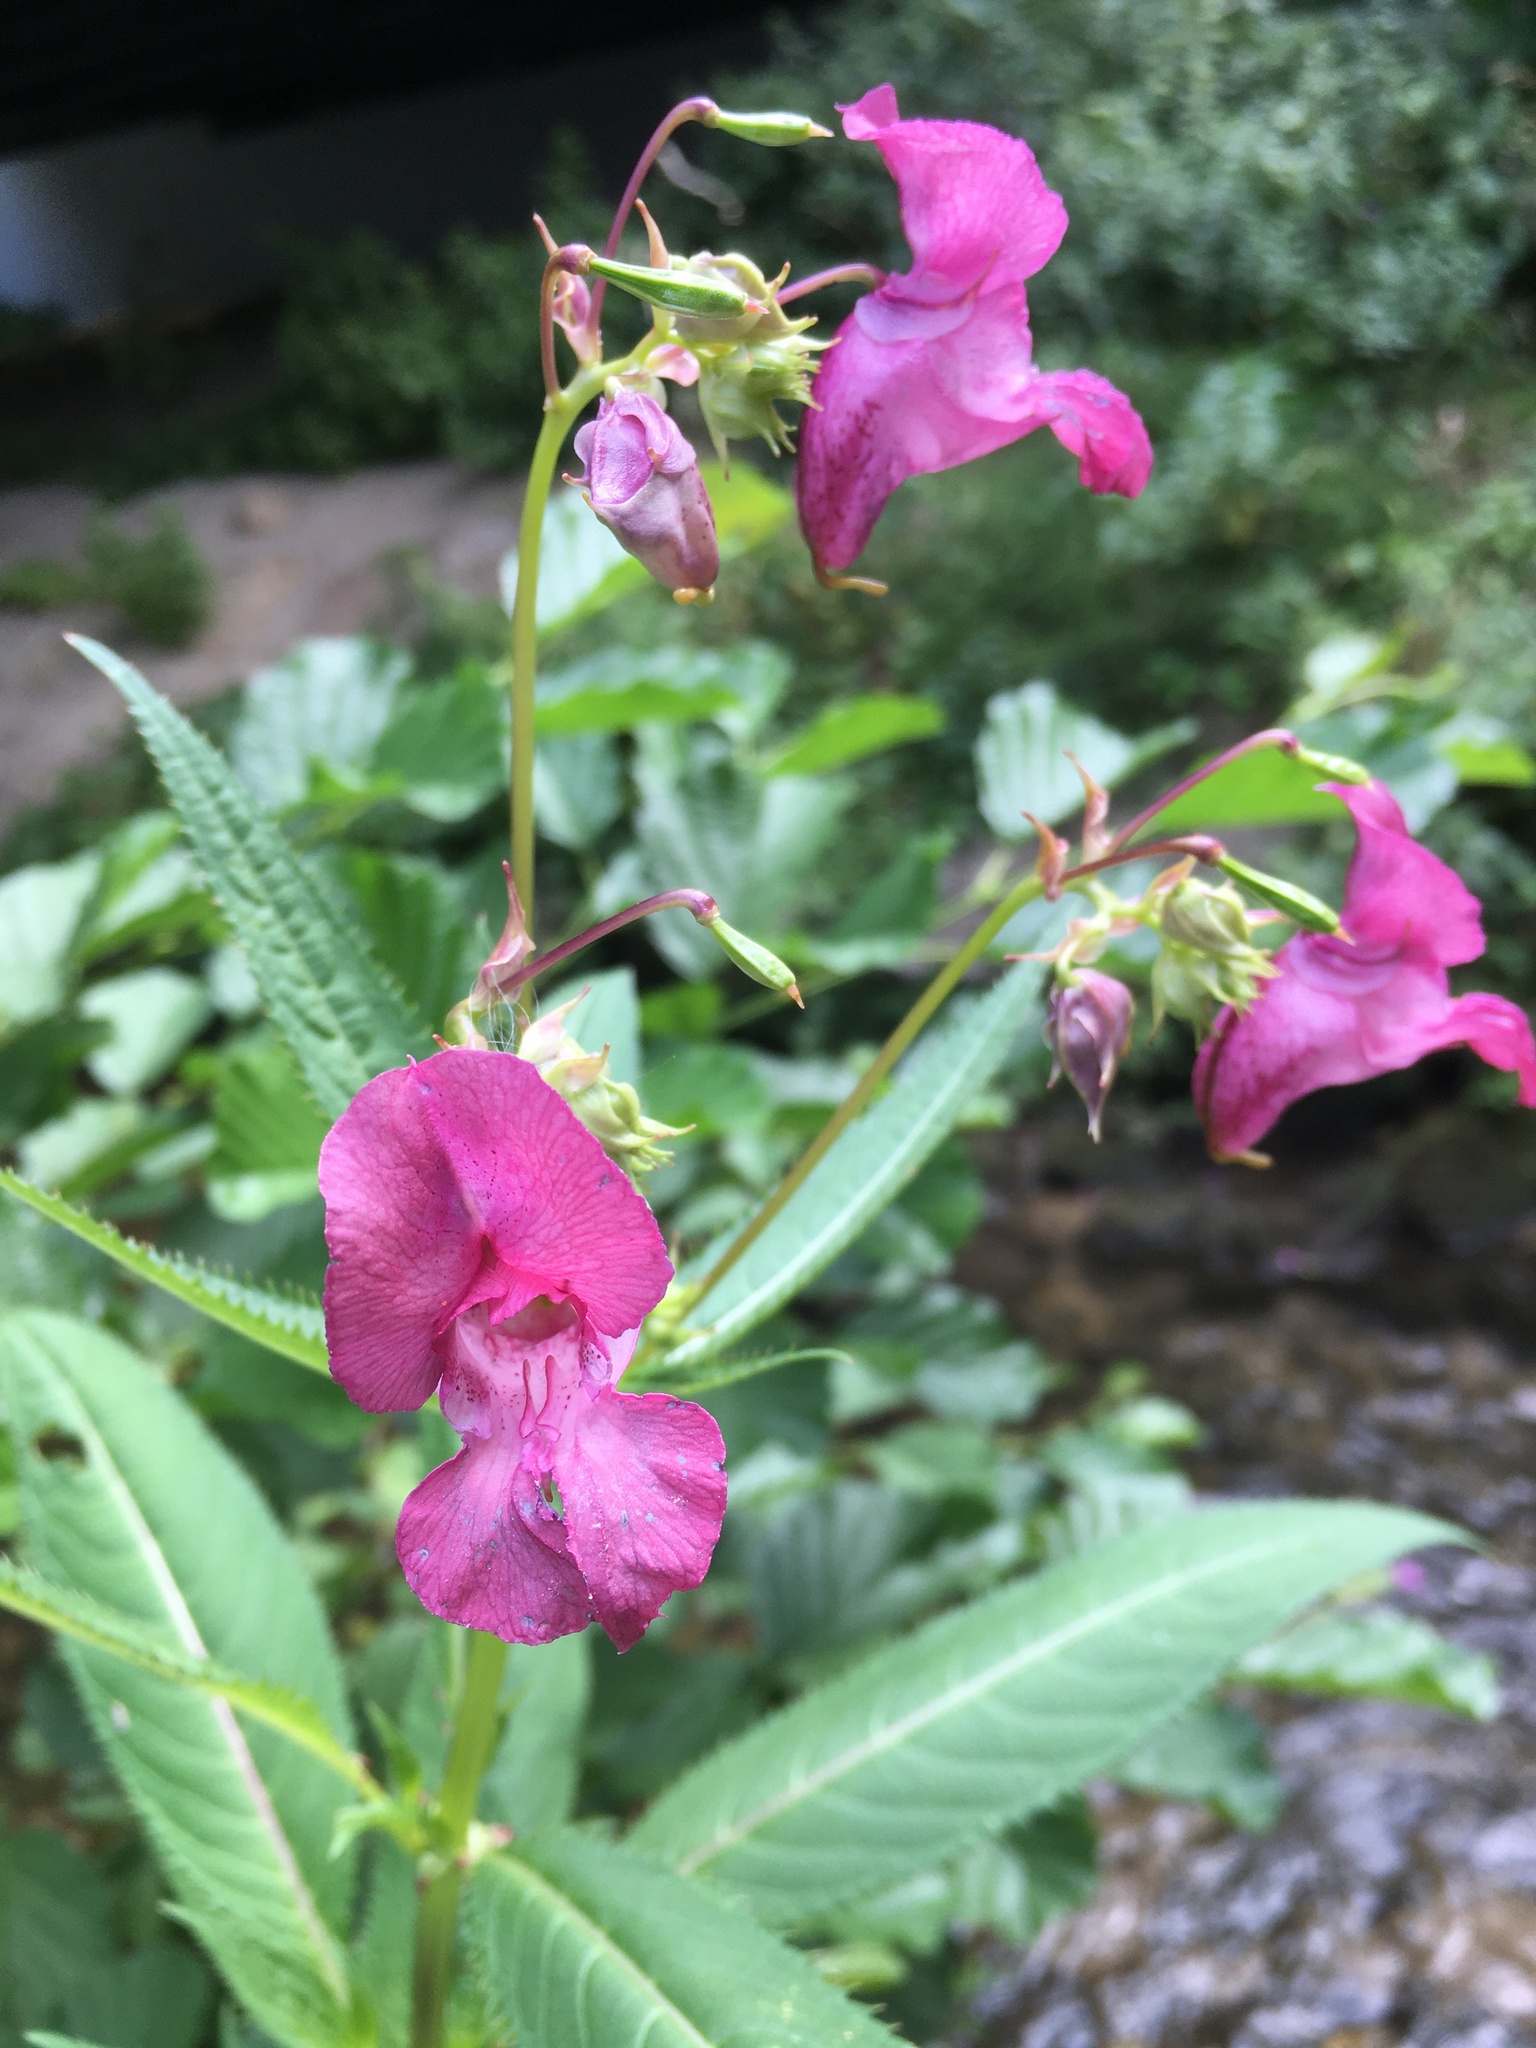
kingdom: Plantae
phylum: Tracheophyta
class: Magnoliopsida
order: Ericales
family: Balsaminaceae
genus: Impatiens
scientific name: Impatiens glandulifera
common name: Himalayan balsam
